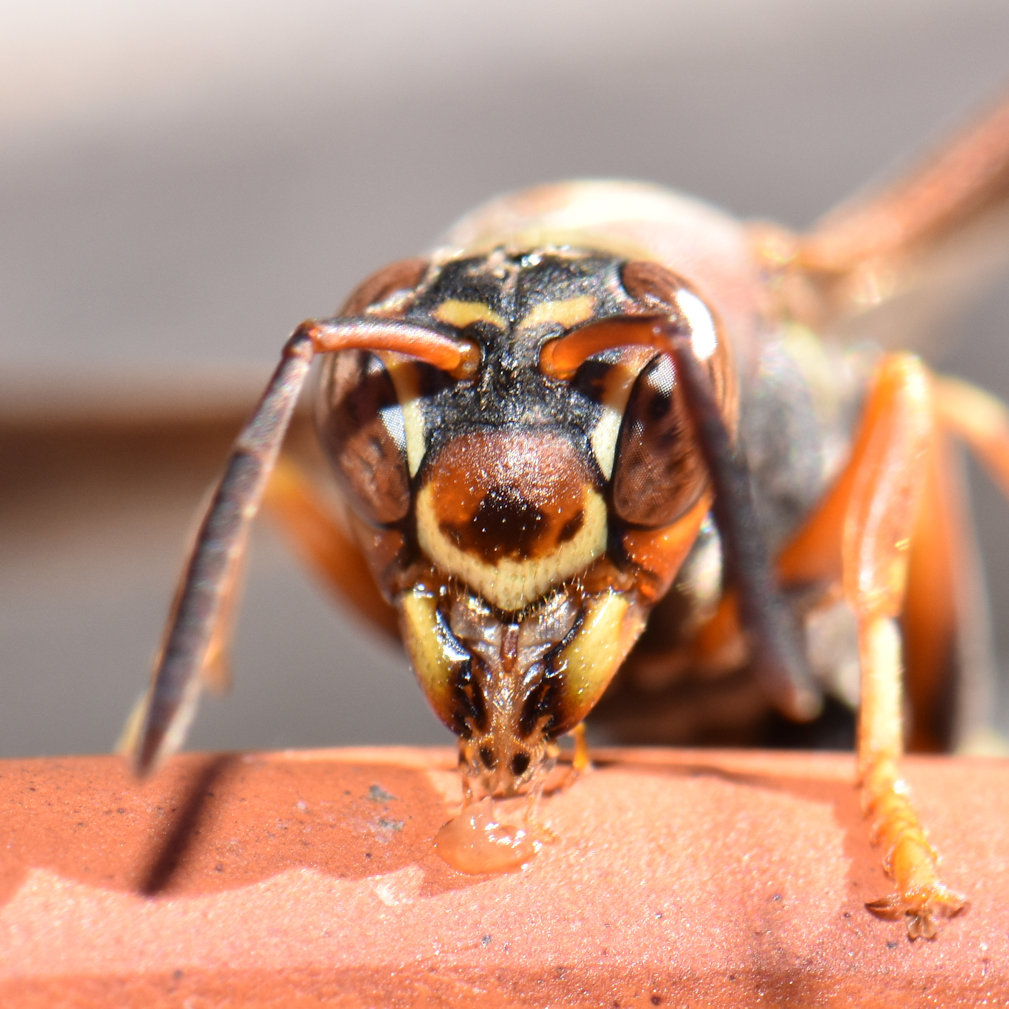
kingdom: Animalia
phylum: Arthropoda
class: Insecta
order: Hymenoptera
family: Eumenidae
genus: Polistes
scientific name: Polistes fuscatus
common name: Dark paper wasp
